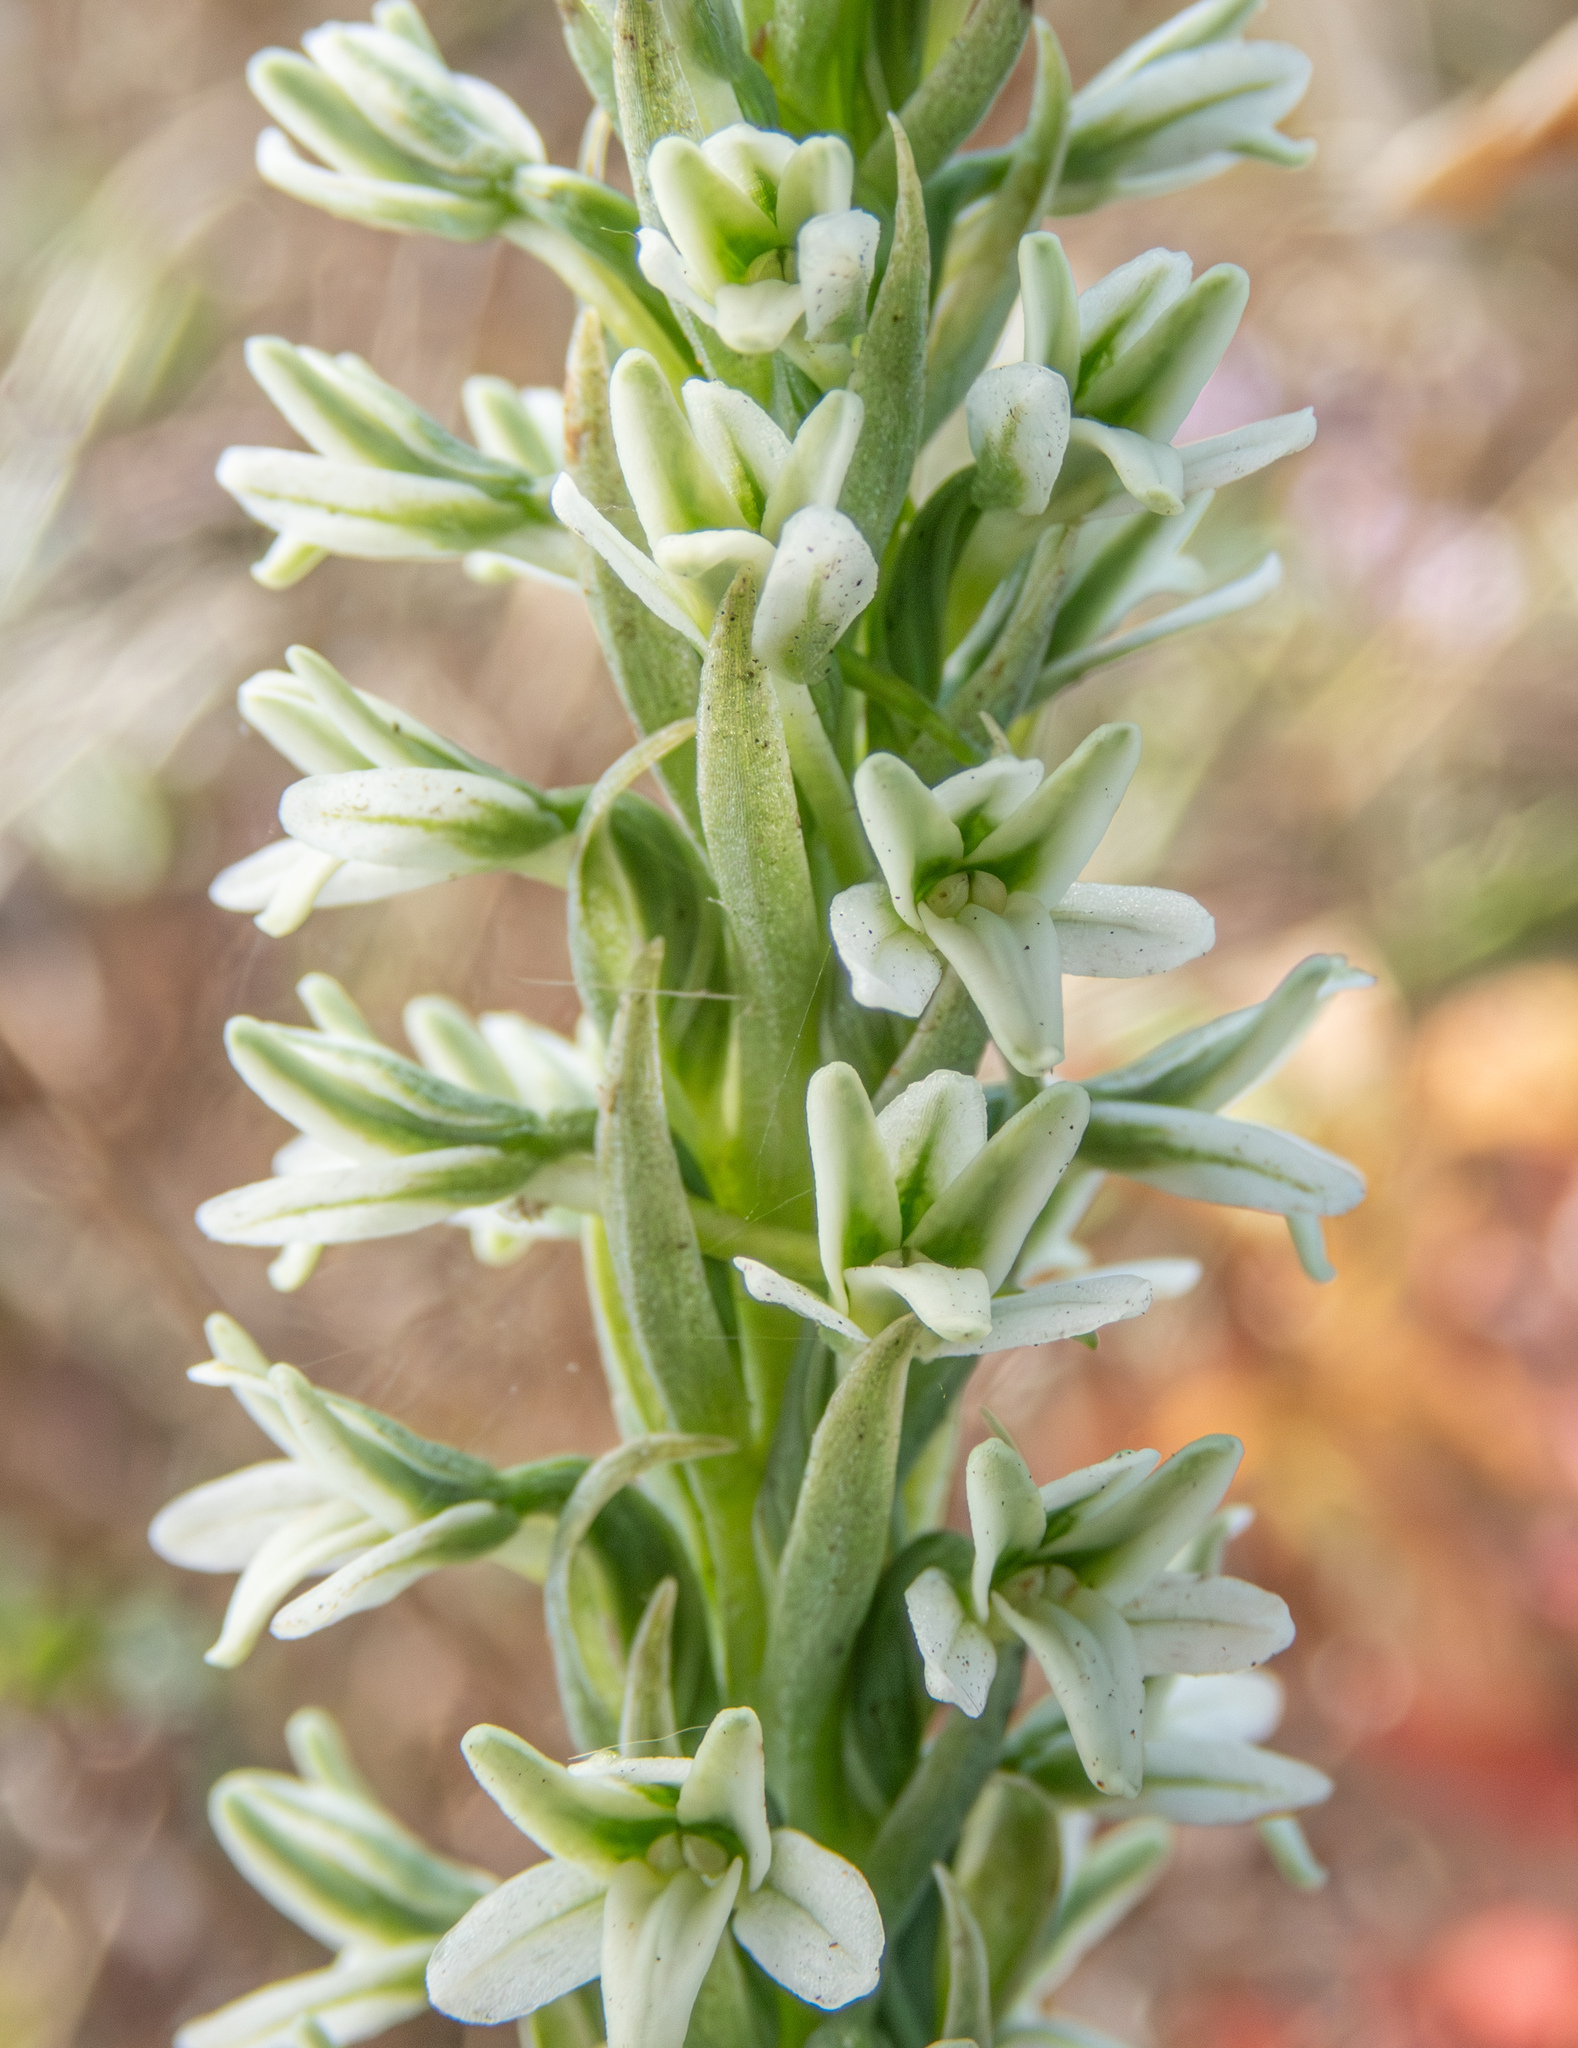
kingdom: Plantae
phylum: Tracheophyta
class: Liliopsida
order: Asparagales
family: Orchidaceae
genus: Platanthera
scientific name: Platanthera elegans
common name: Coast piperia
